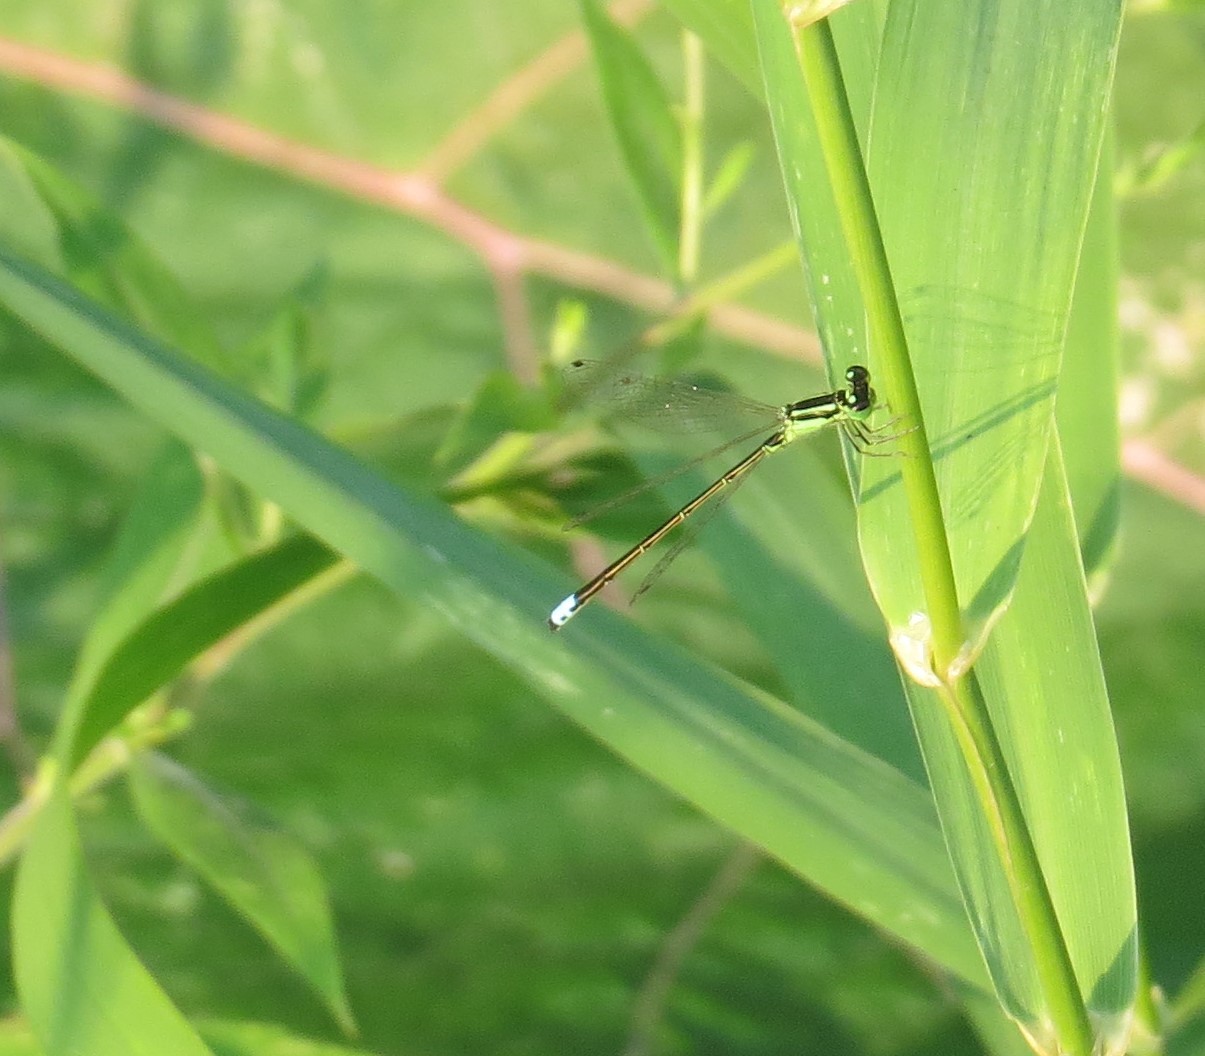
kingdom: Animalia
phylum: Arthropoda
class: Insecta
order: Odonata
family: Coenagrionidae
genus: Ischnura
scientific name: Ischnura verticalis
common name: Eastern forktail
